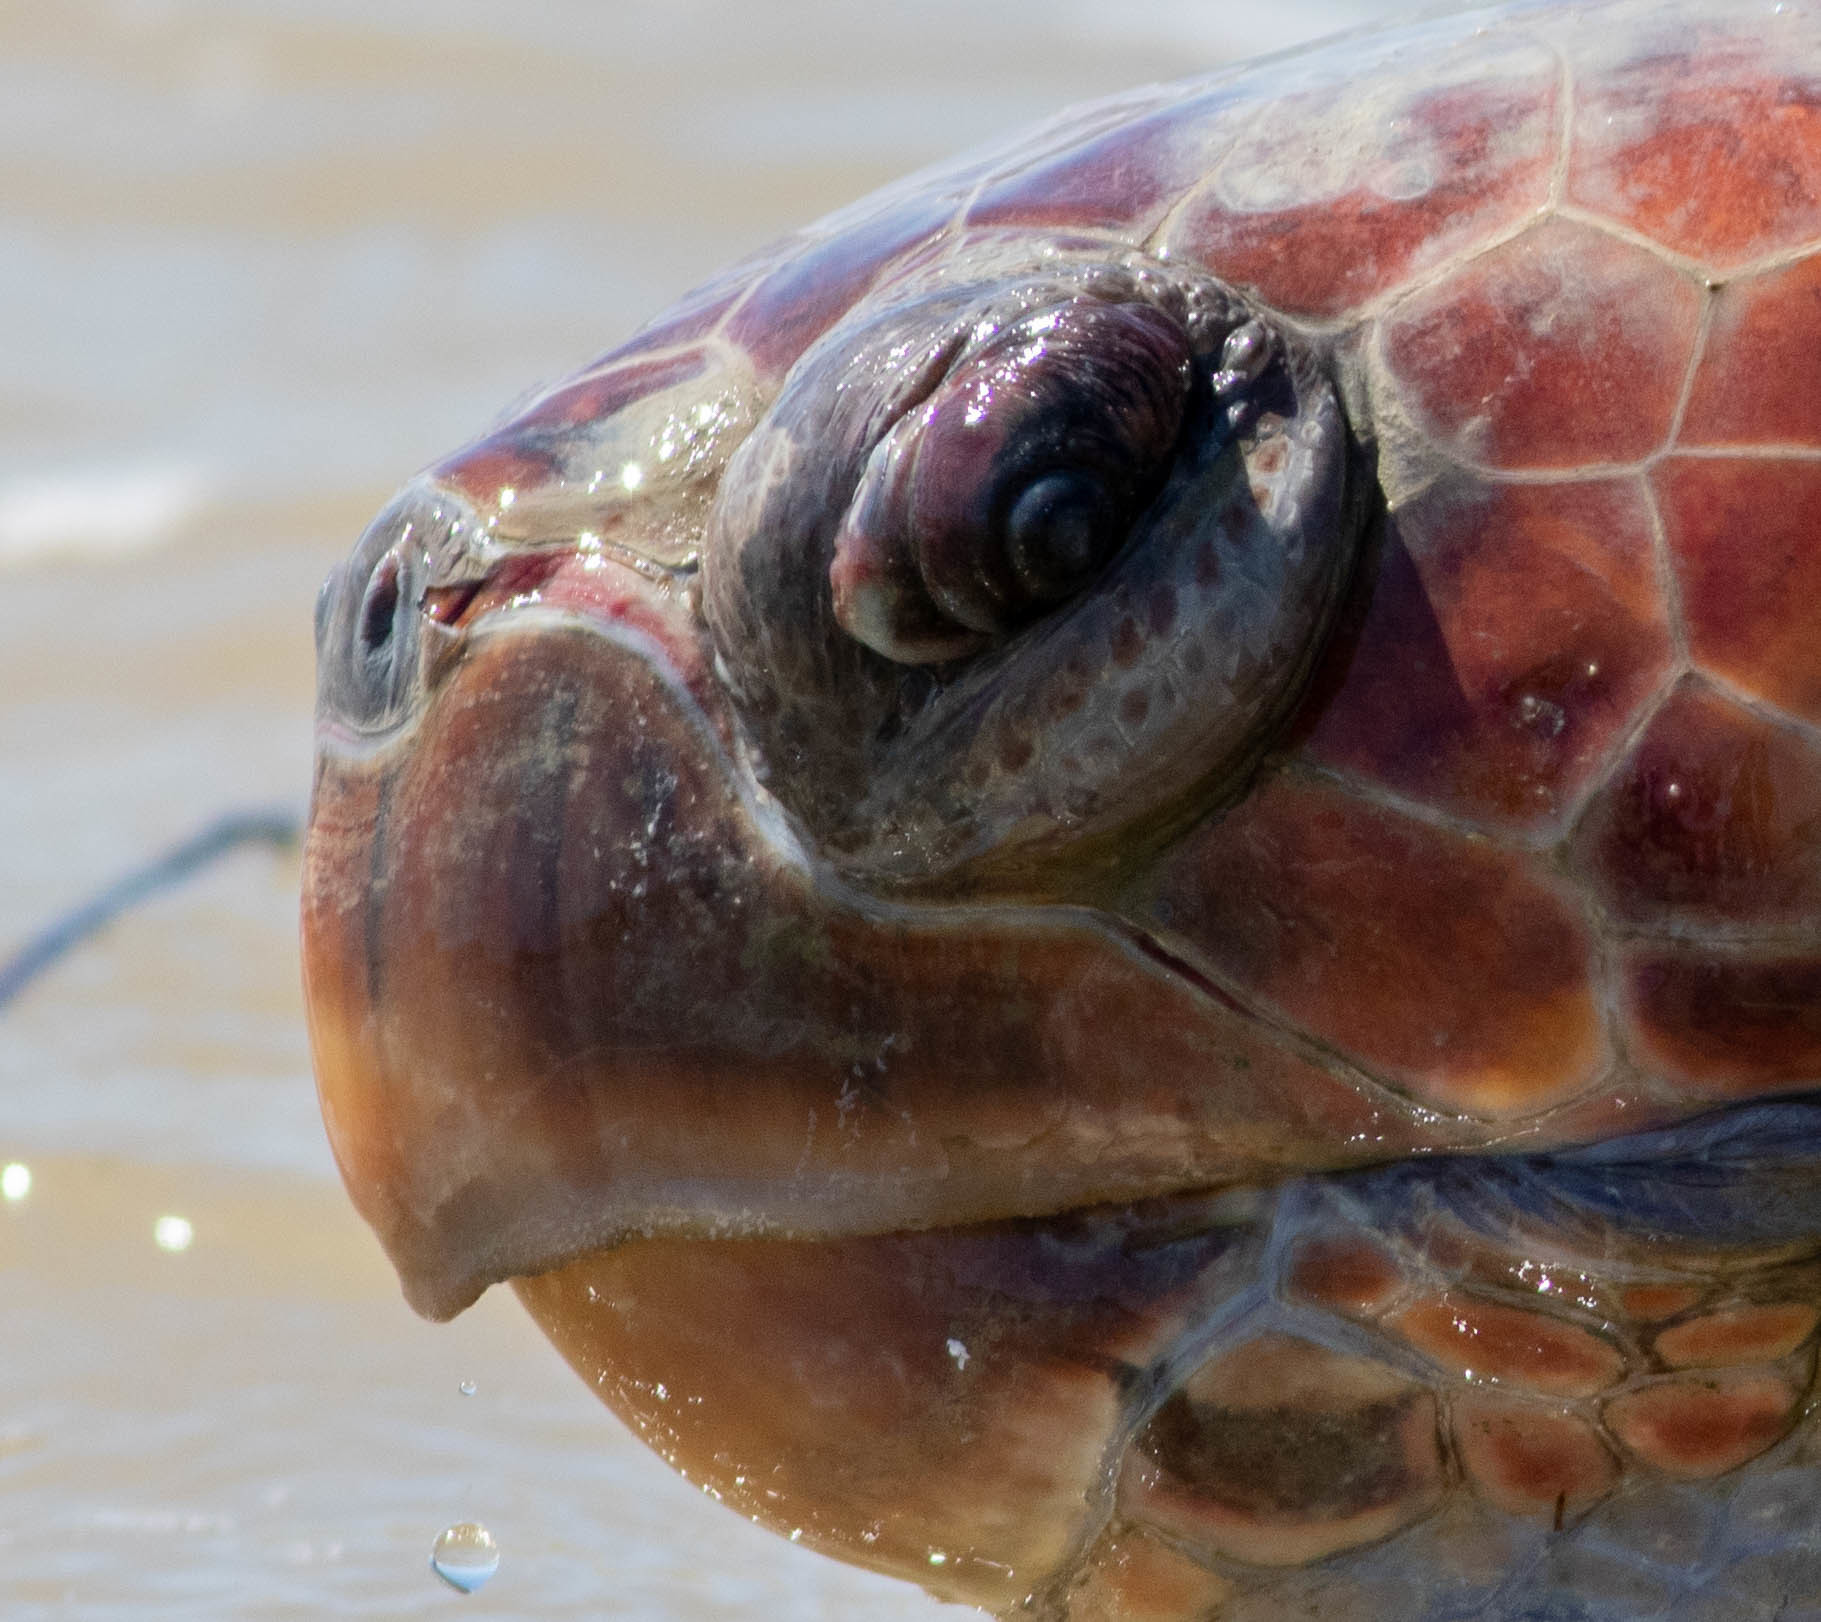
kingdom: Animalia
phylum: Chordata
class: Testudines
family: Cheloniidae
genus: Caretta
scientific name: Caretta caretta
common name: Loggerhead sea turtle
